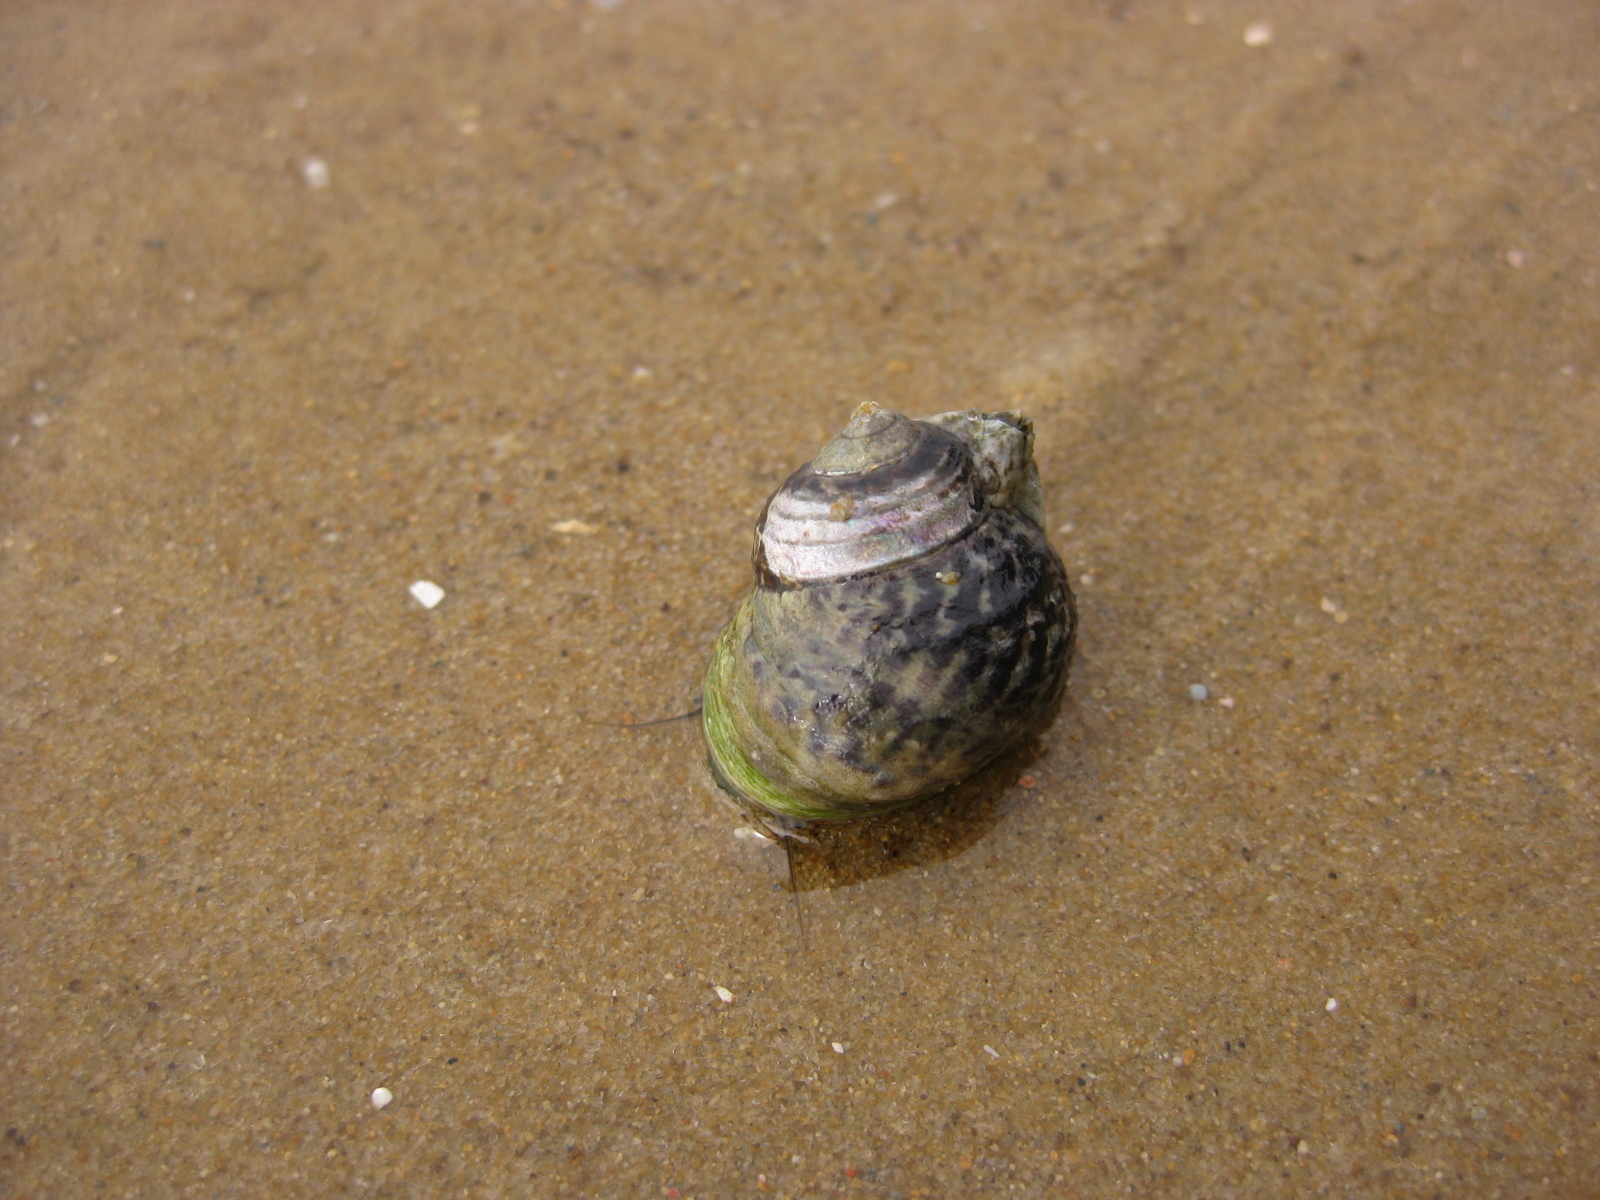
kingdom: Animalia
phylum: Mollusca
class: Gastropoda
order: Trochida
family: Trochidae
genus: Diloma
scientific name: Diloma subrostratum
